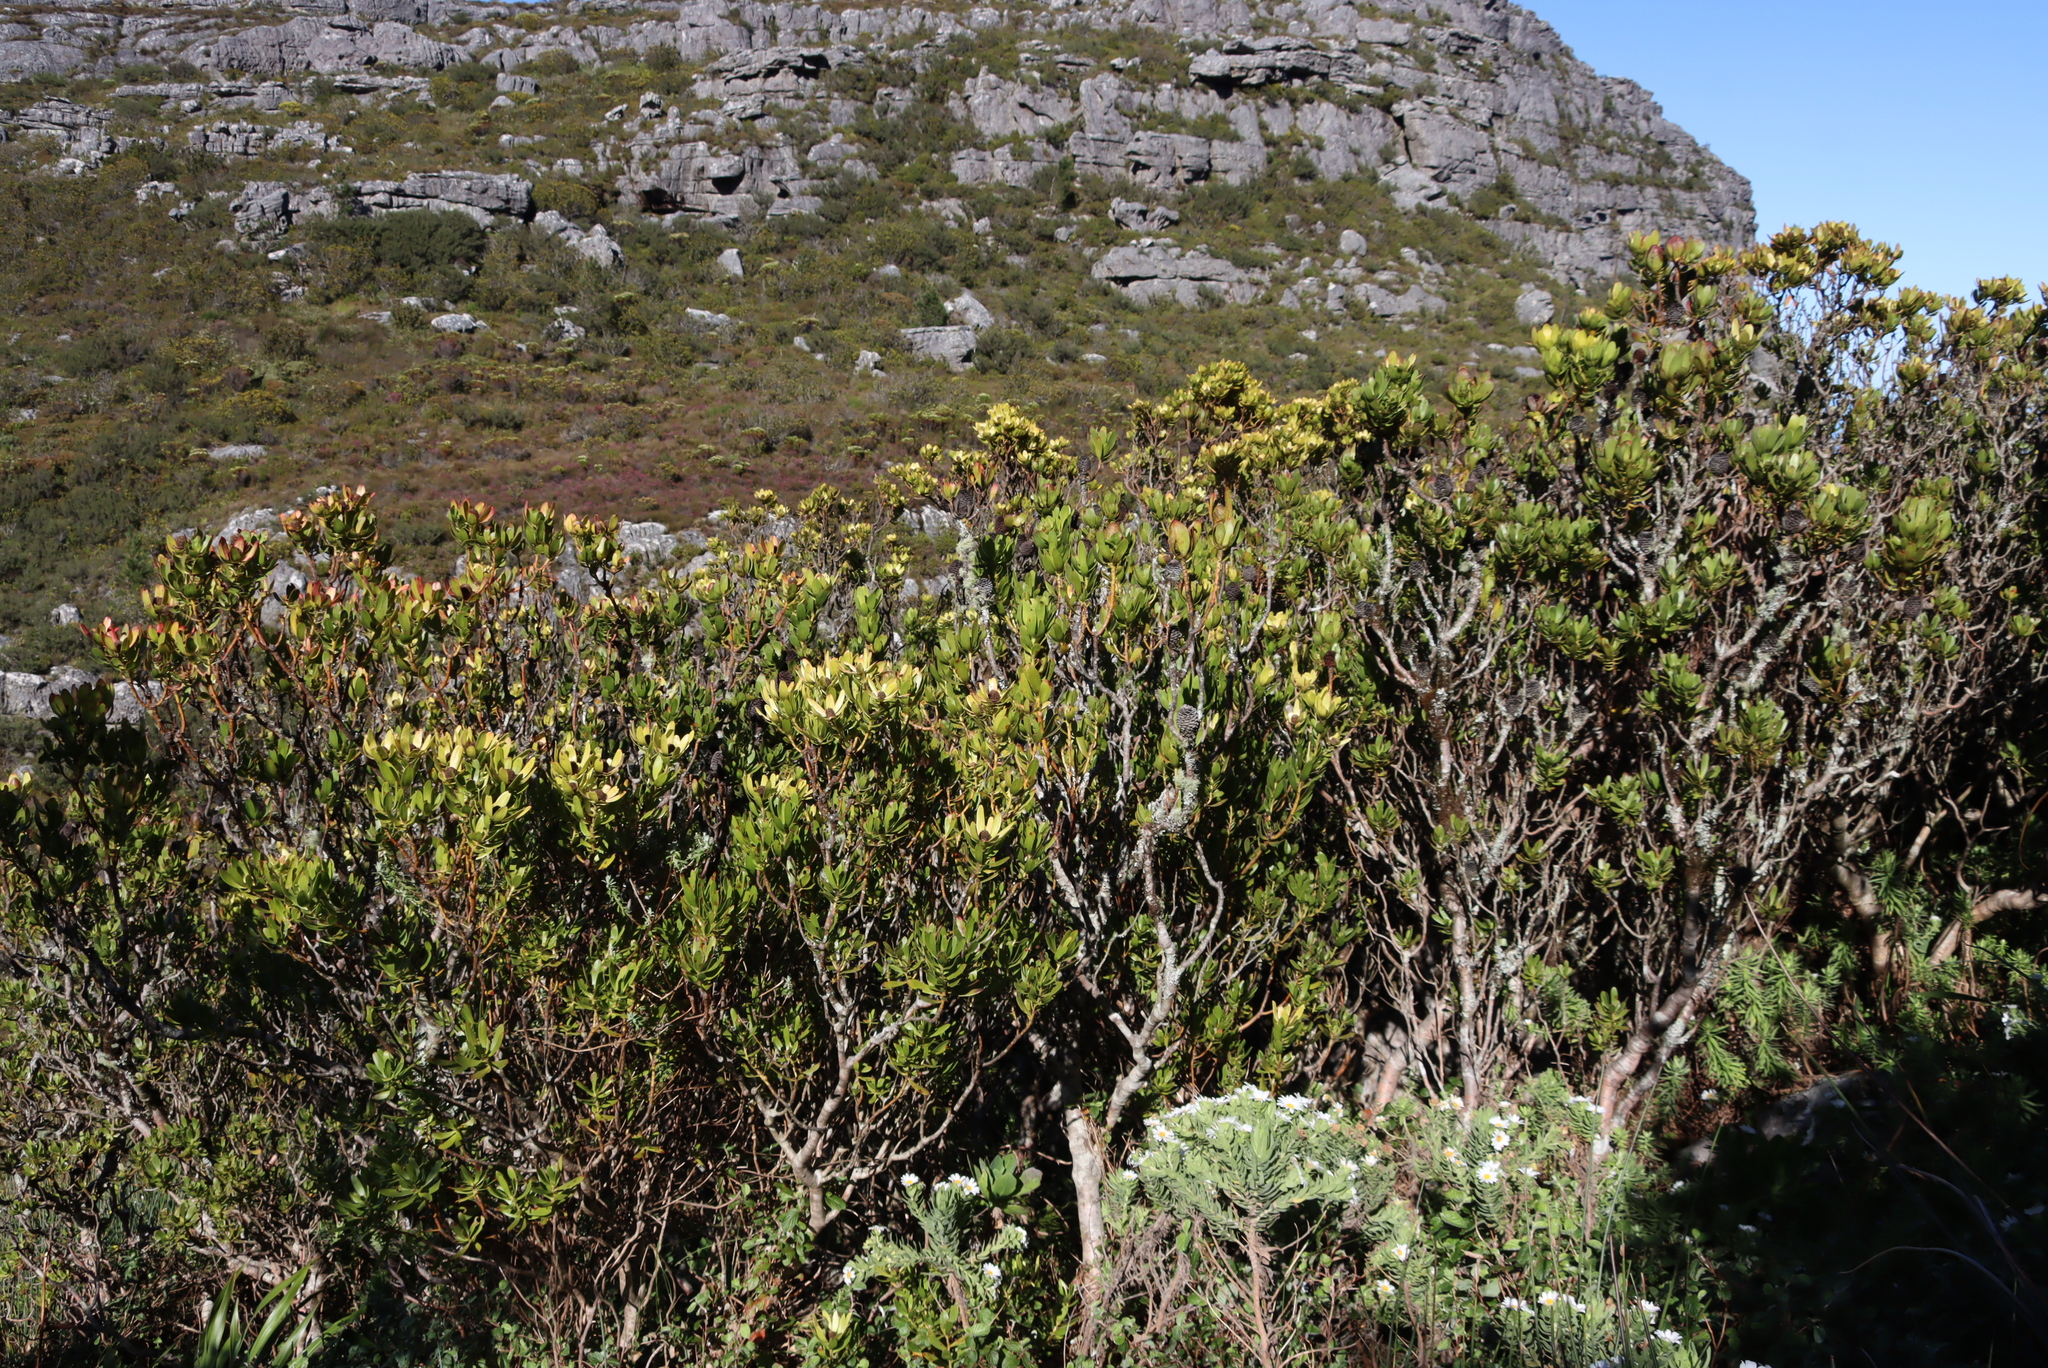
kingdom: Plantae
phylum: Tracheophyta
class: Magnoliopsida
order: Proteales
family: Proteaceae
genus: Leucadendron
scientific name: Leucadendron strobilinum
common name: Mountain rose
